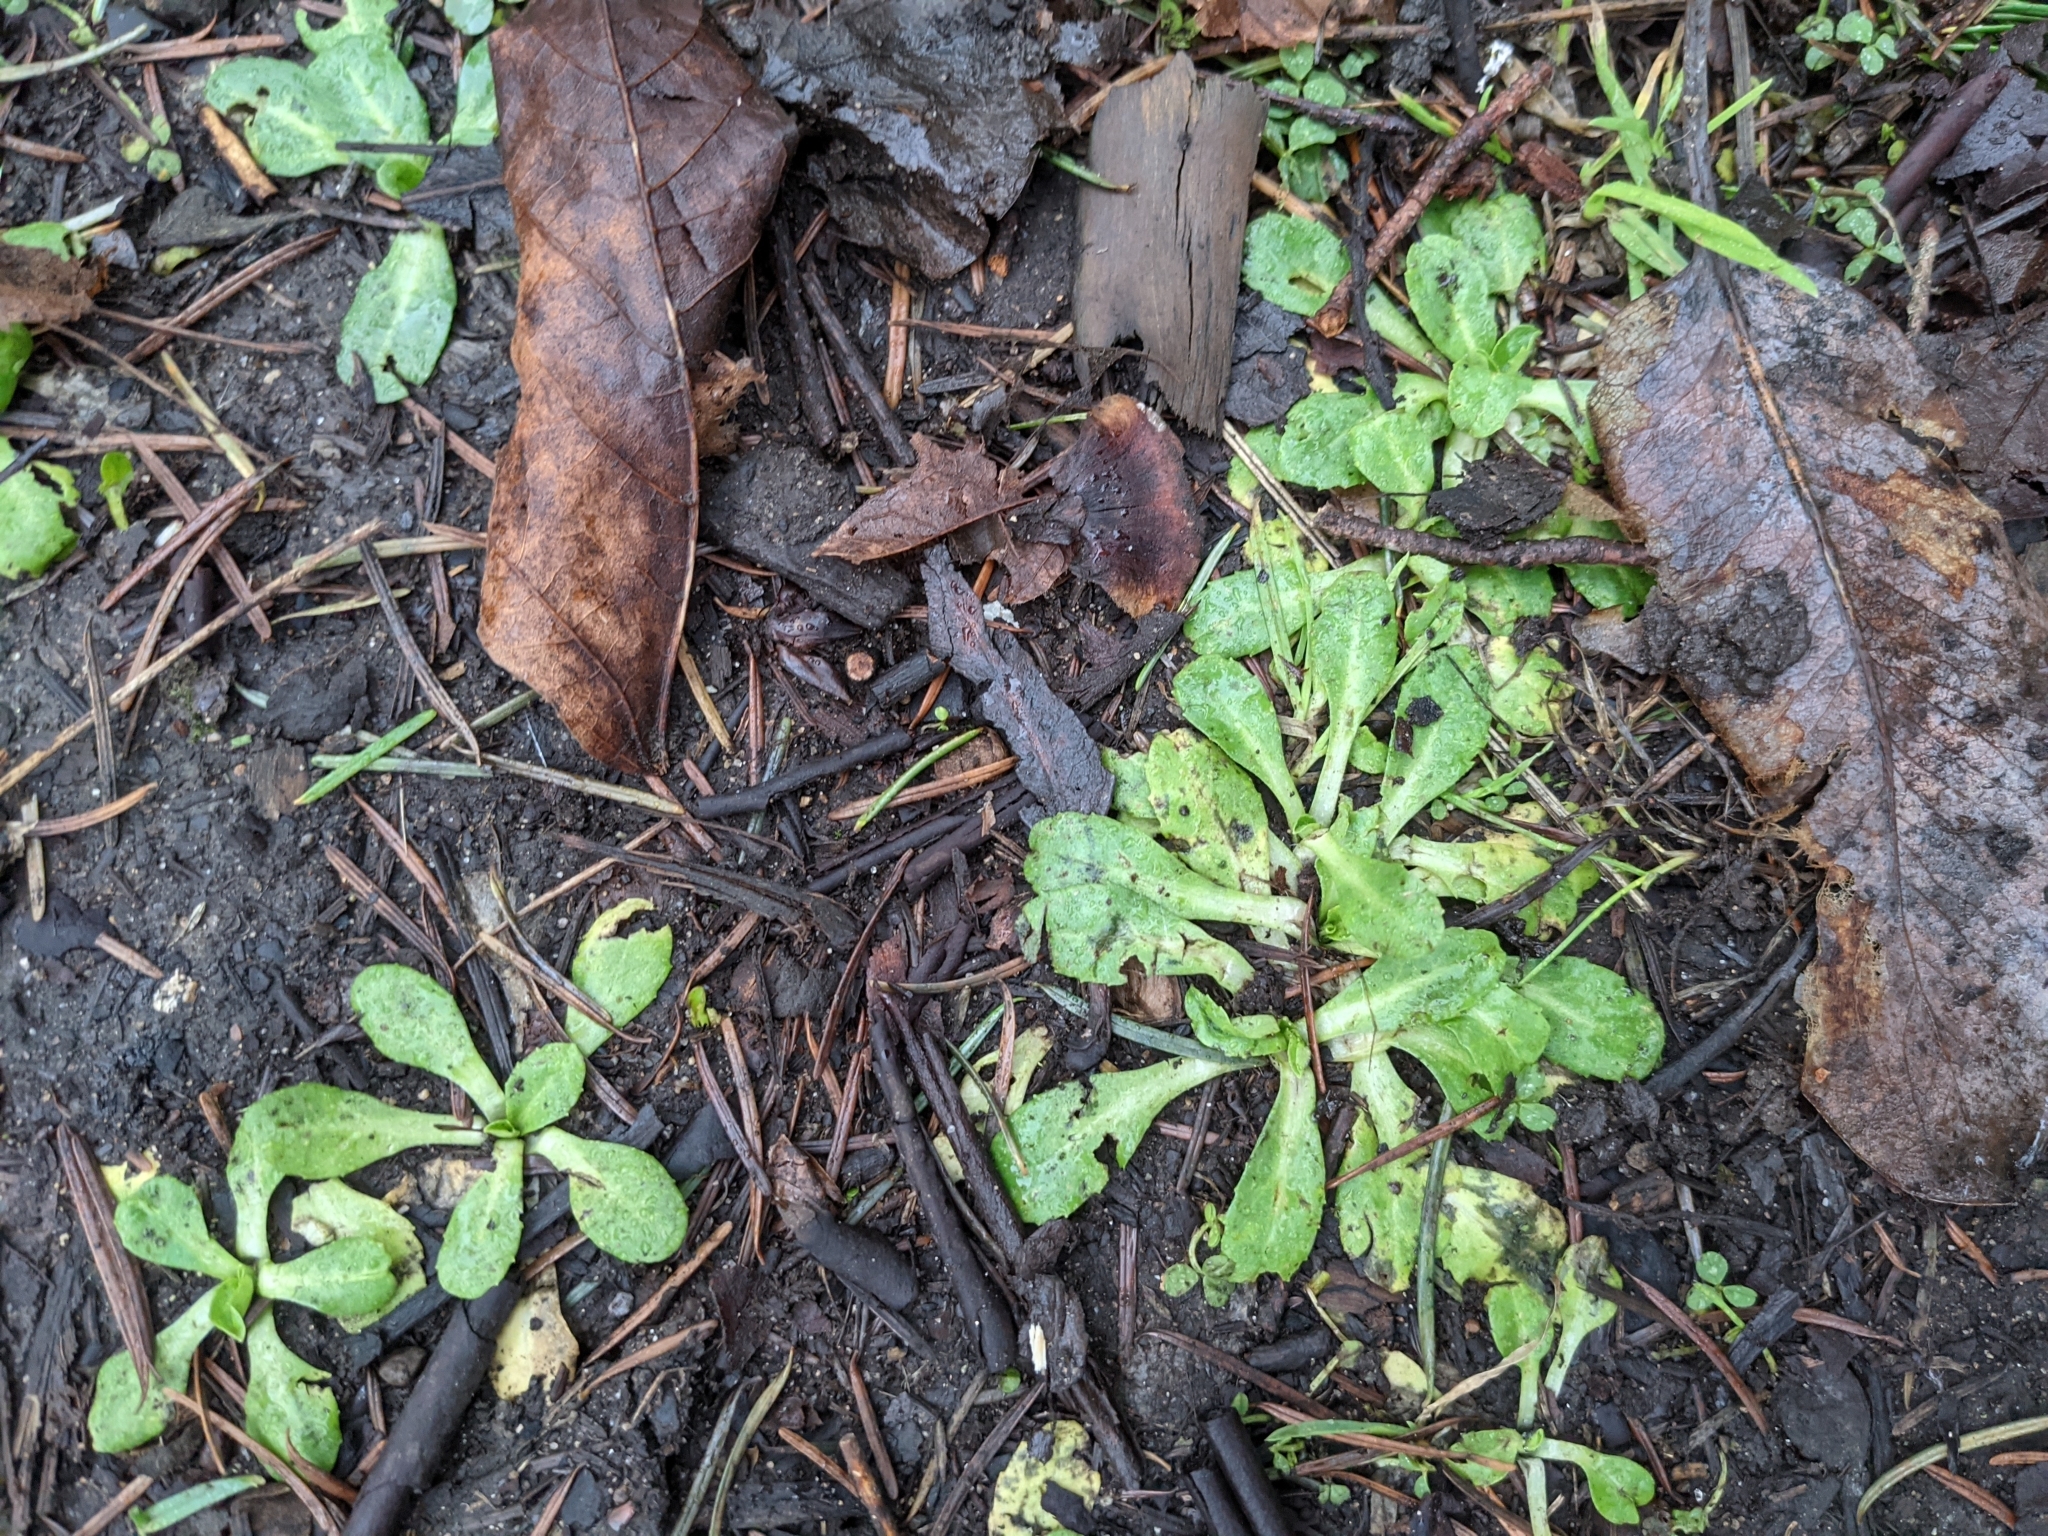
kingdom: Plantae
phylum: Tracheophyta
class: Magnoliopsida
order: Asterales
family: Asteraceae
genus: Bellis
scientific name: Bellis perennis
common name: Lawndaisy
